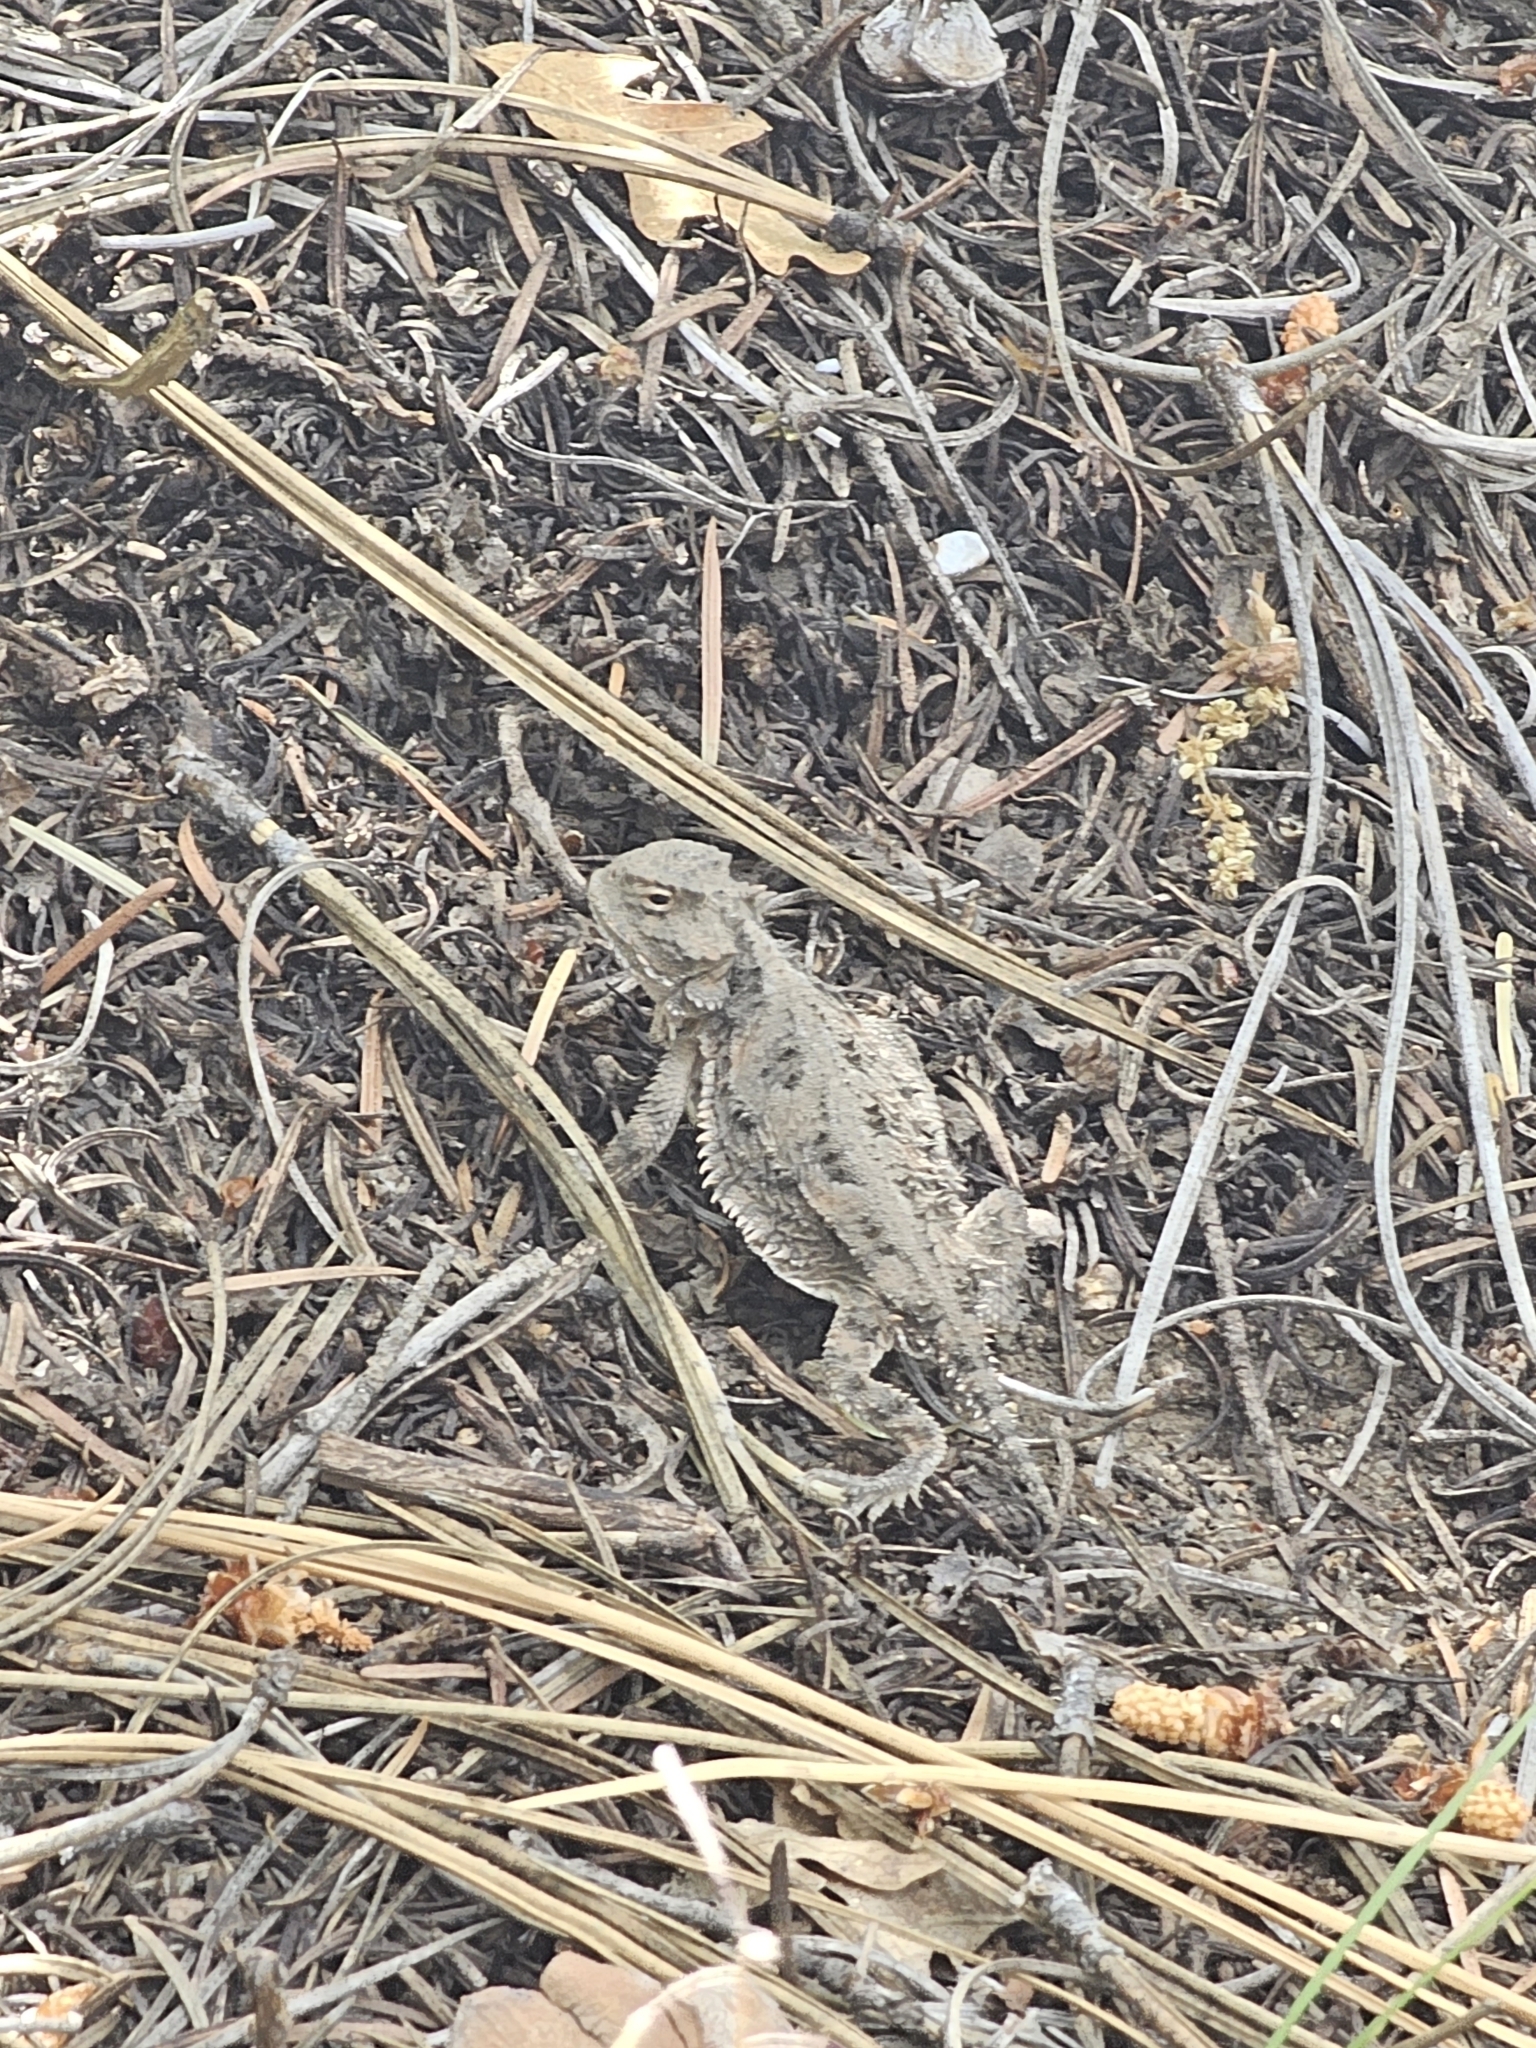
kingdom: Animalia
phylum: Chordata
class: Squamata
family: Phrynosomatidae
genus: Phrynosoma
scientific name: Phrynosoma hernandesi
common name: Greater short-horned lizard
